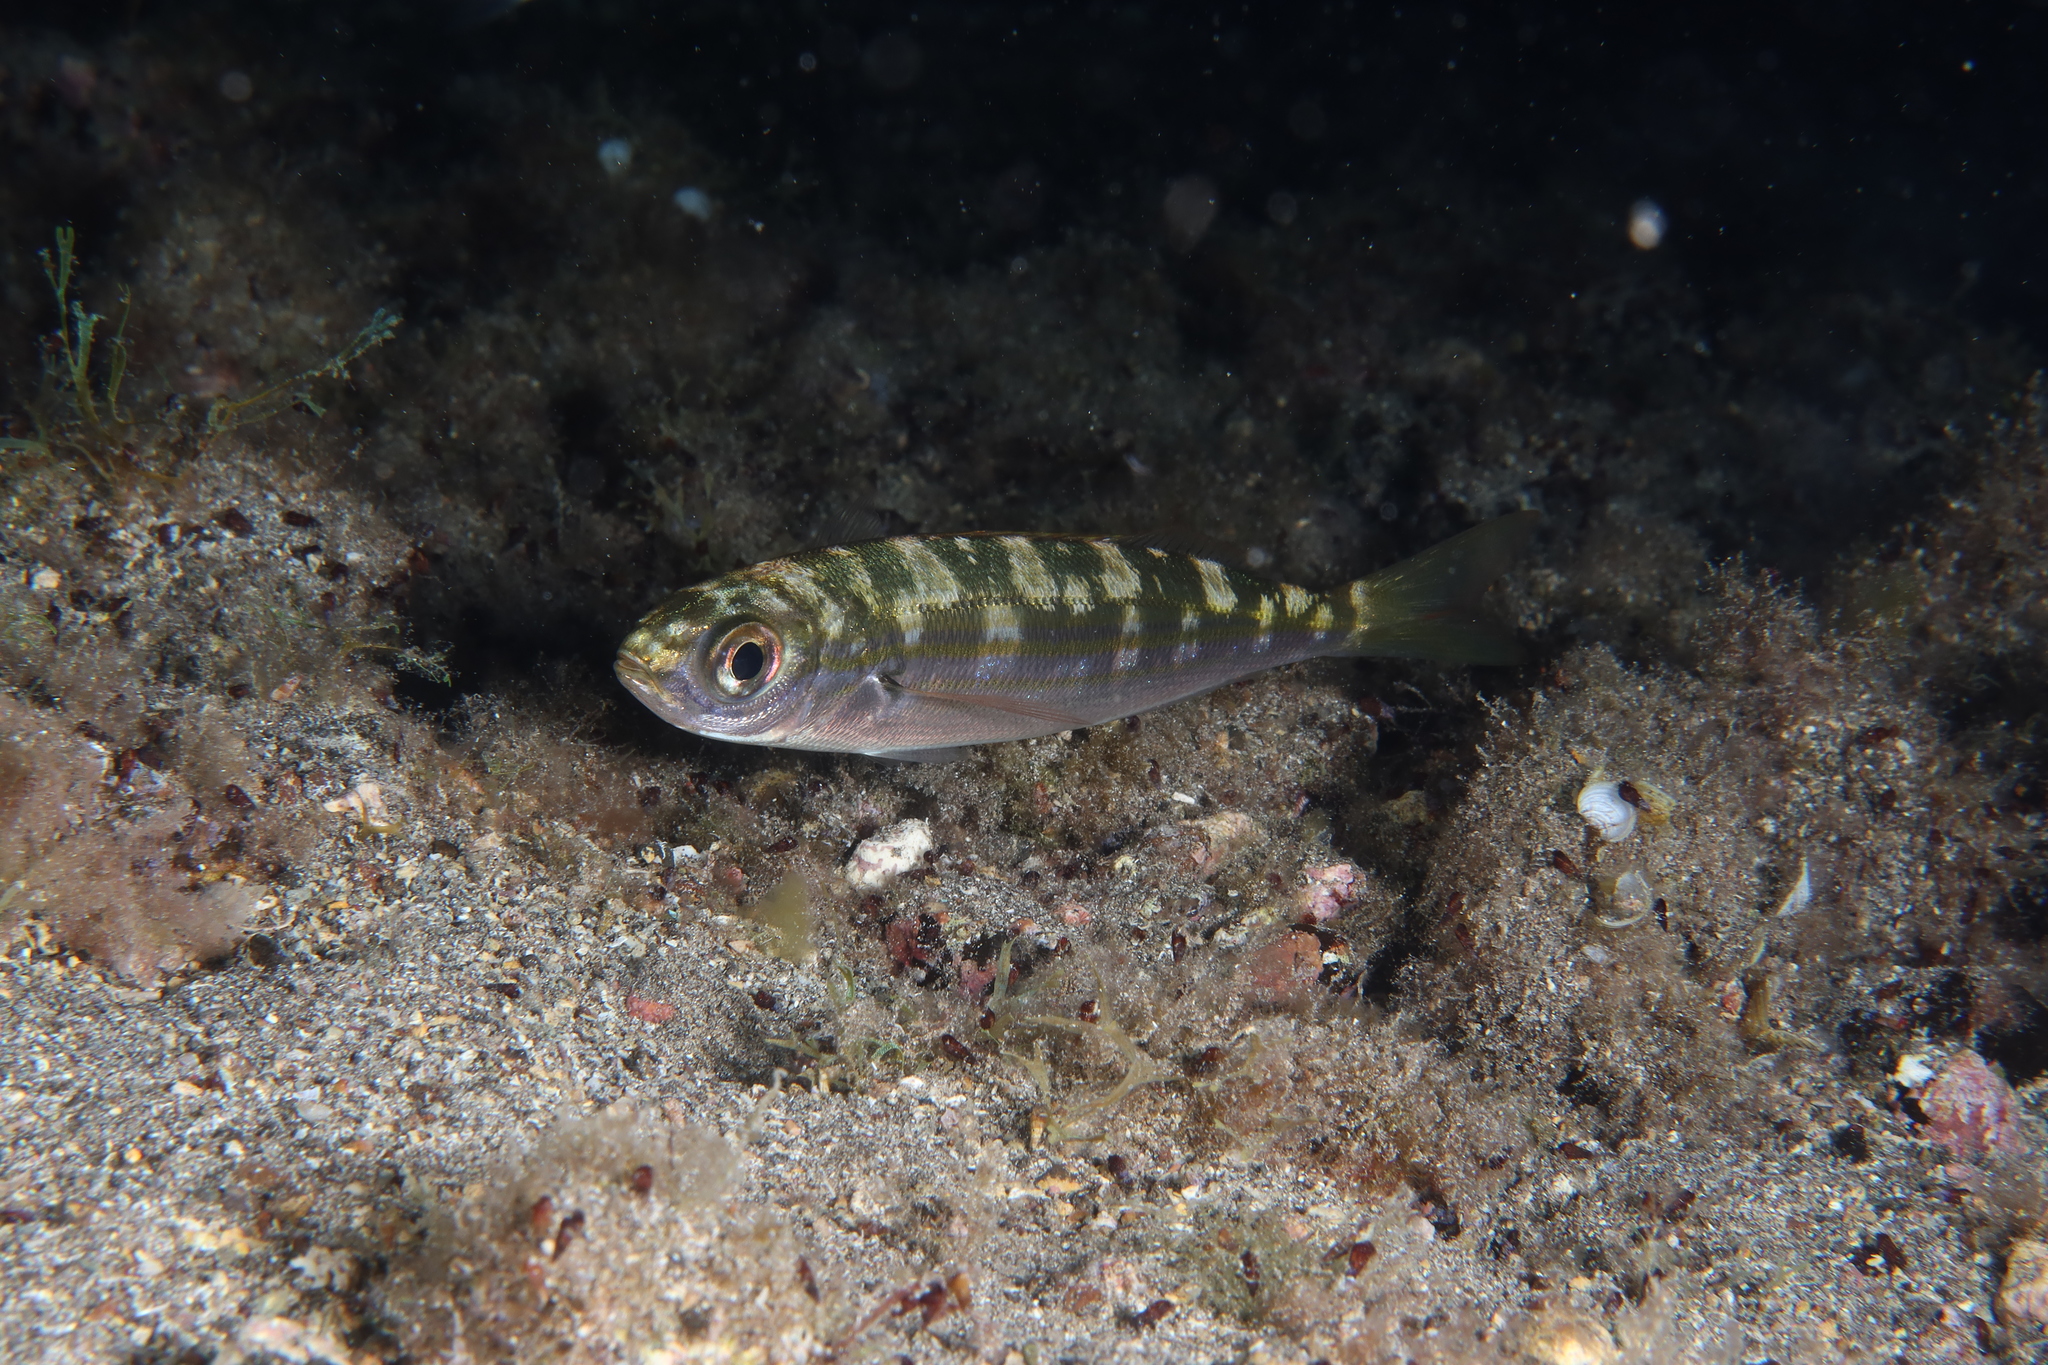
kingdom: Animalia
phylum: Chordata
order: Perciformes
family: Sparidae
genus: Boops
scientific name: Boops boops
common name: Bogue
